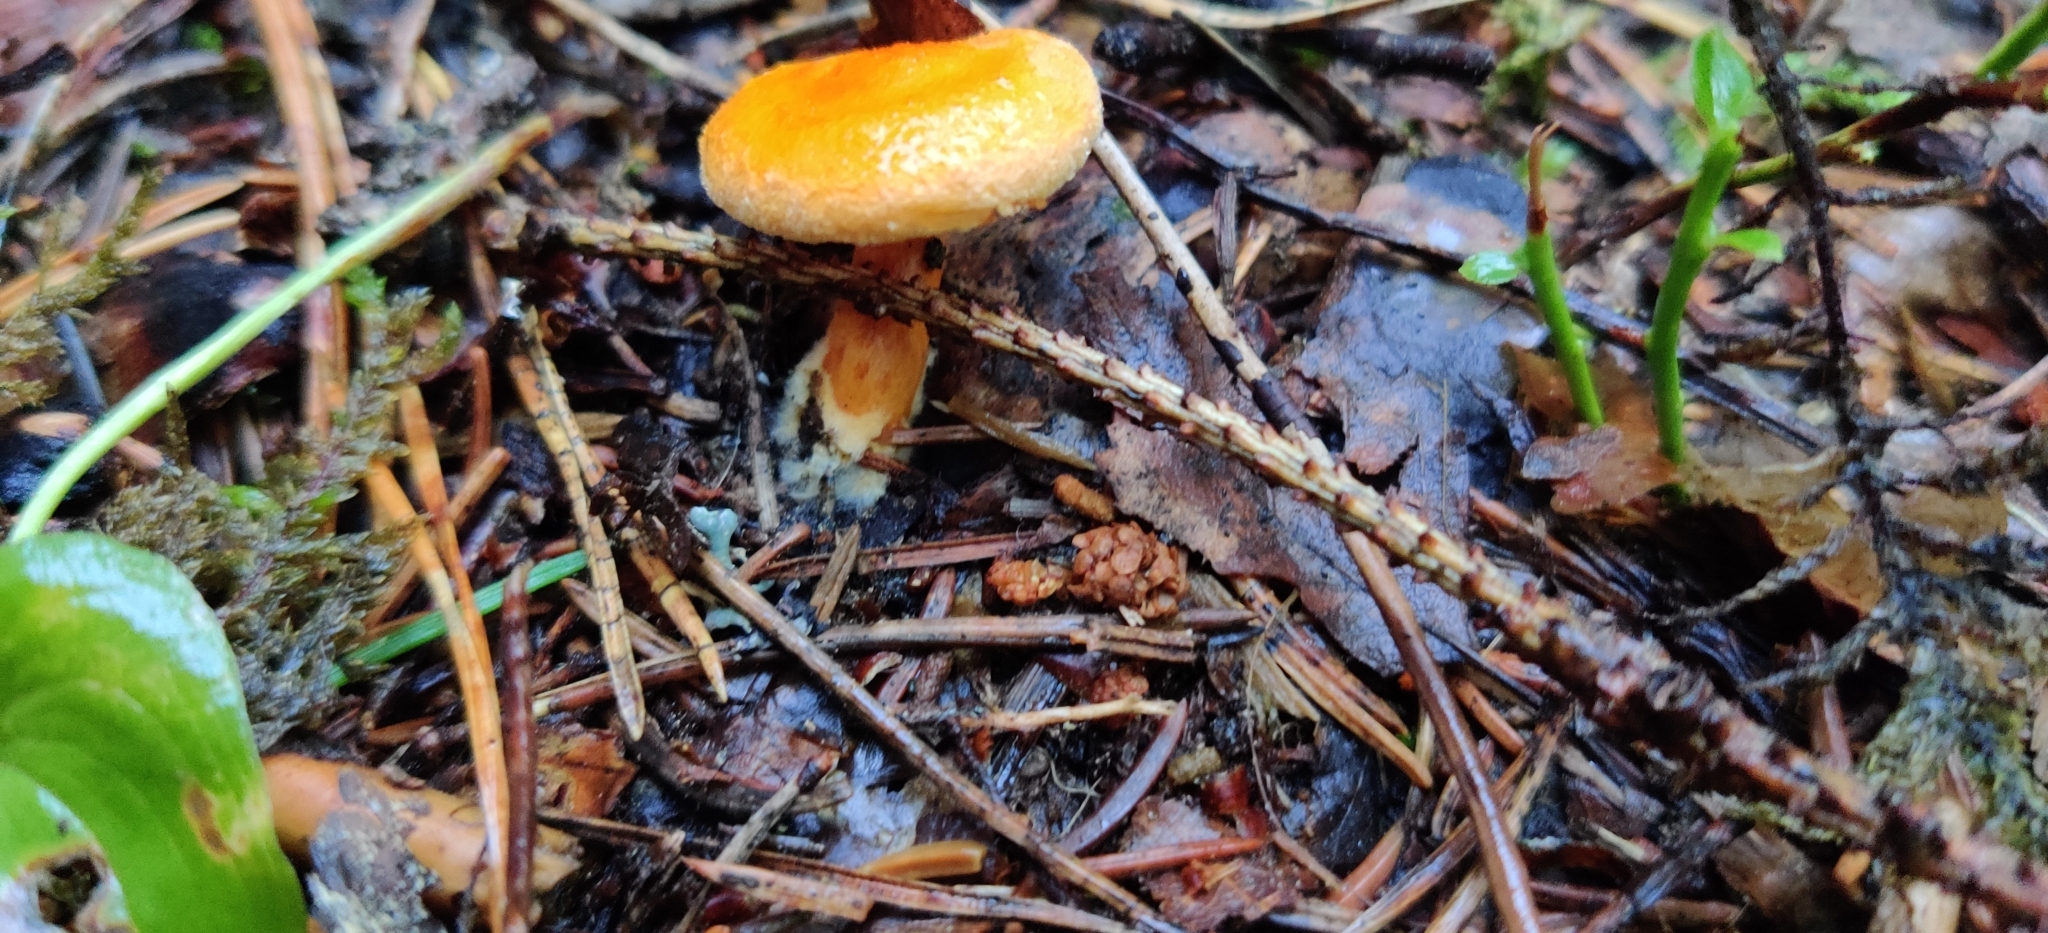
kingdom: Fungi
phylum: Basidiomycota
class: Agaricomycetes
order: Boletales
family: Hygrophoropsidaceae
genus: Hygrophoropsis
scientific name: Hygrophoropsis aurantiaca
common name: False chanterelle
